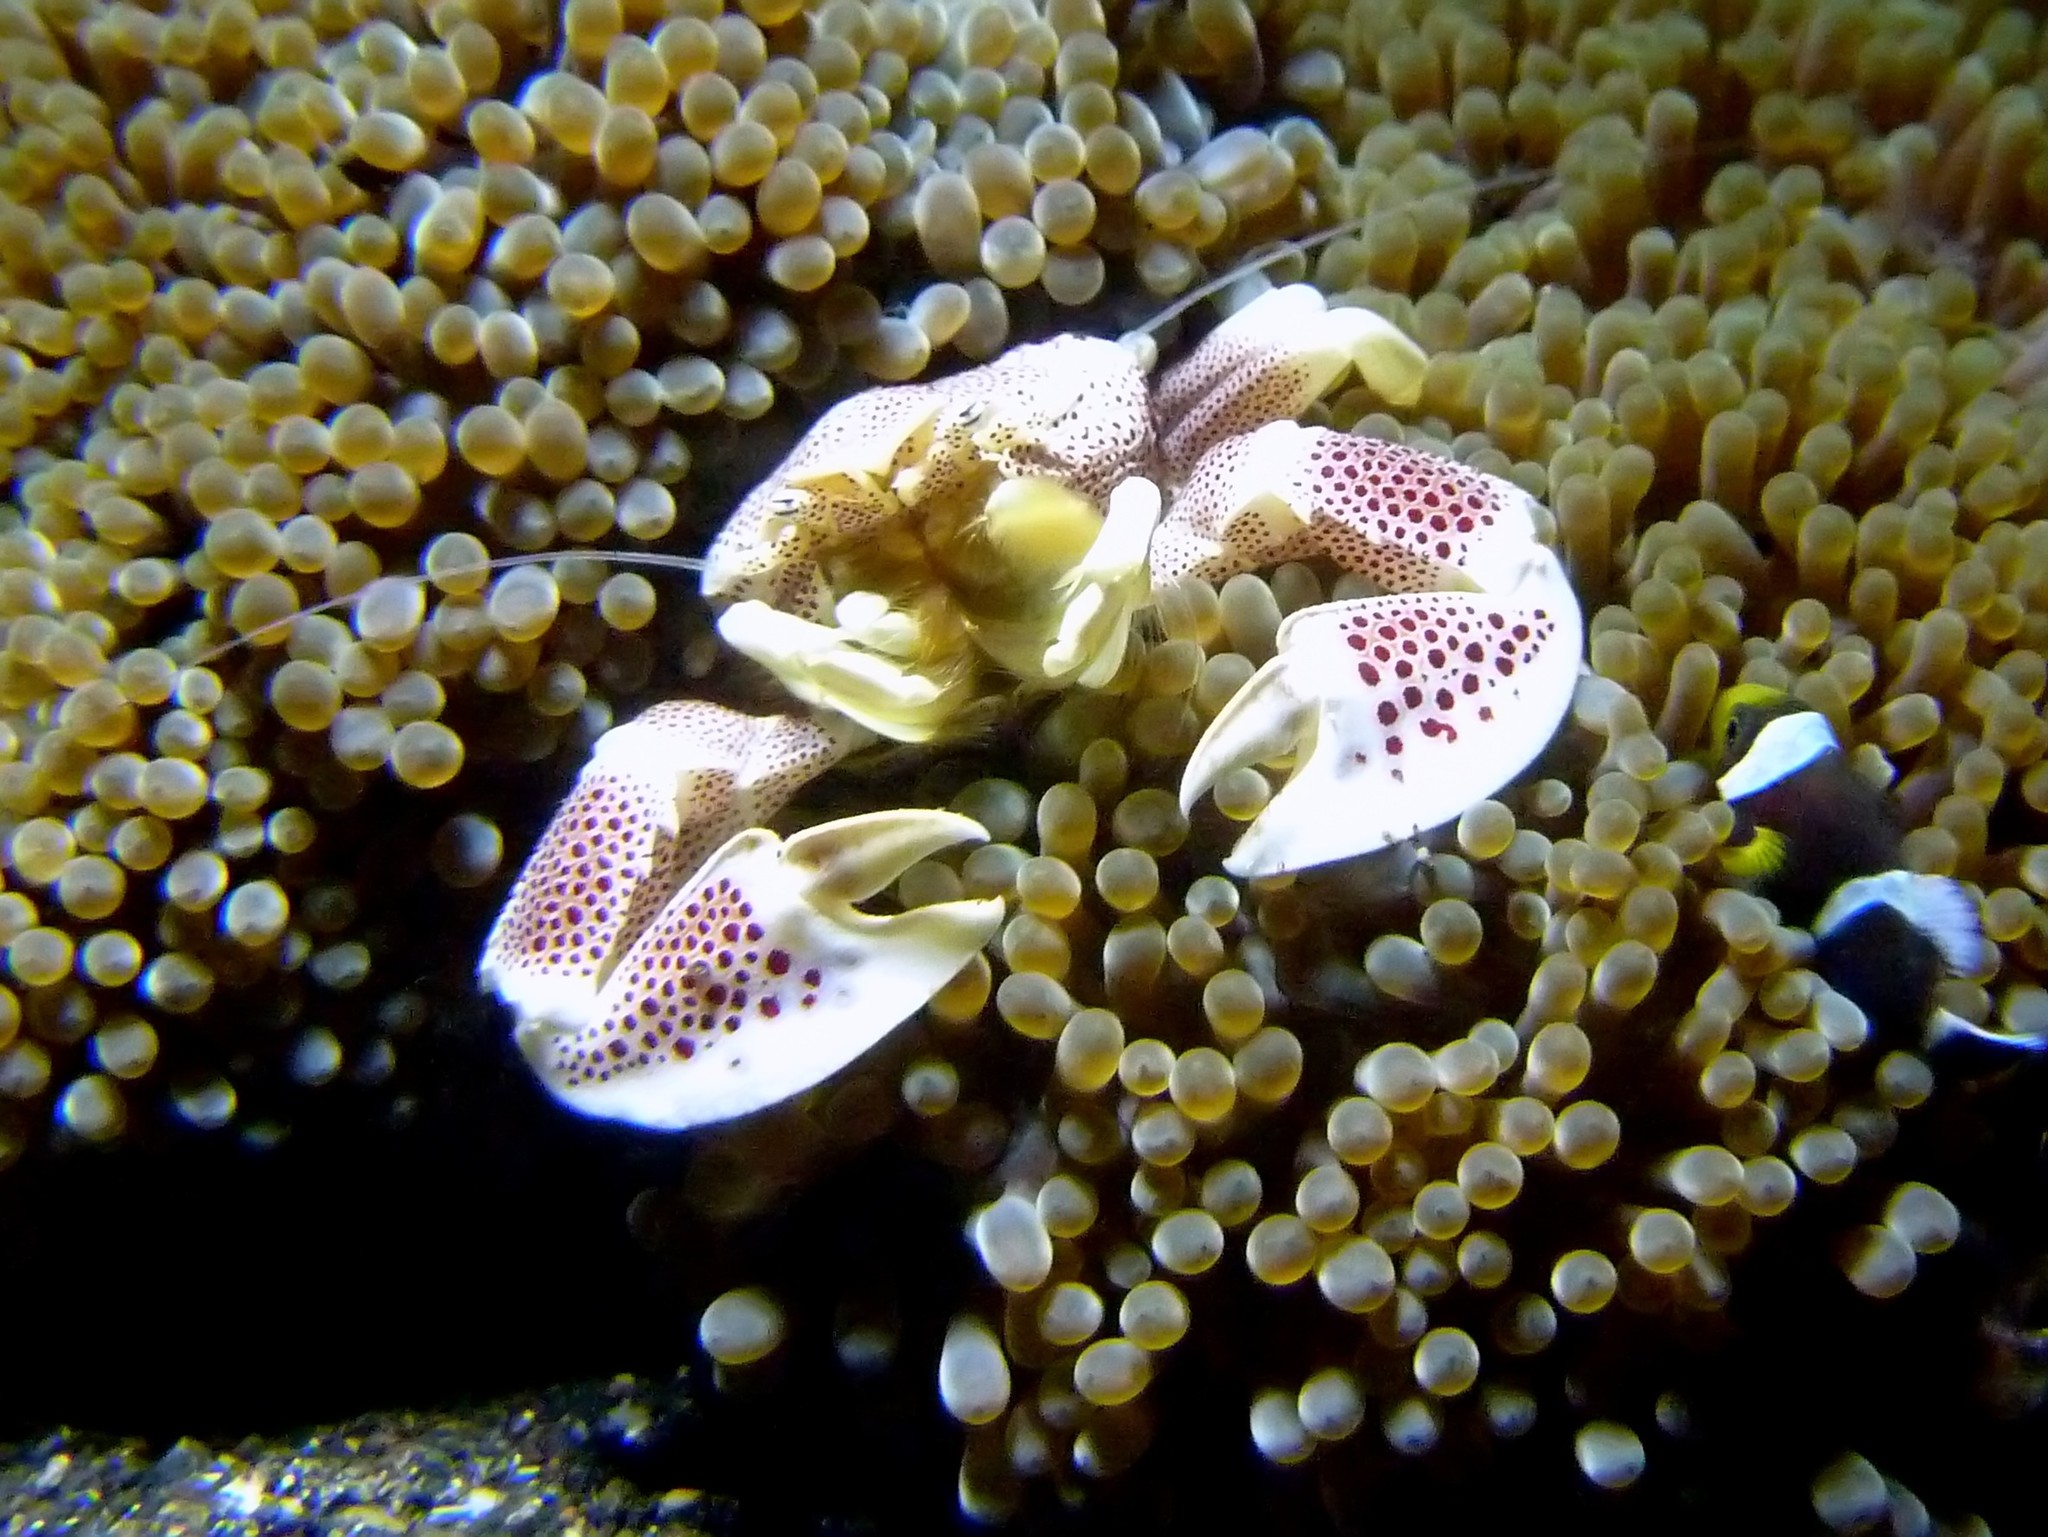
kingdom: Animalia
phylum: Arthropoda
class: Malacostraca
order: Decapoda
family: Porcellanidae
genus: Neopetrolisthes
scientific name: Neopetrolisthes maculatus
